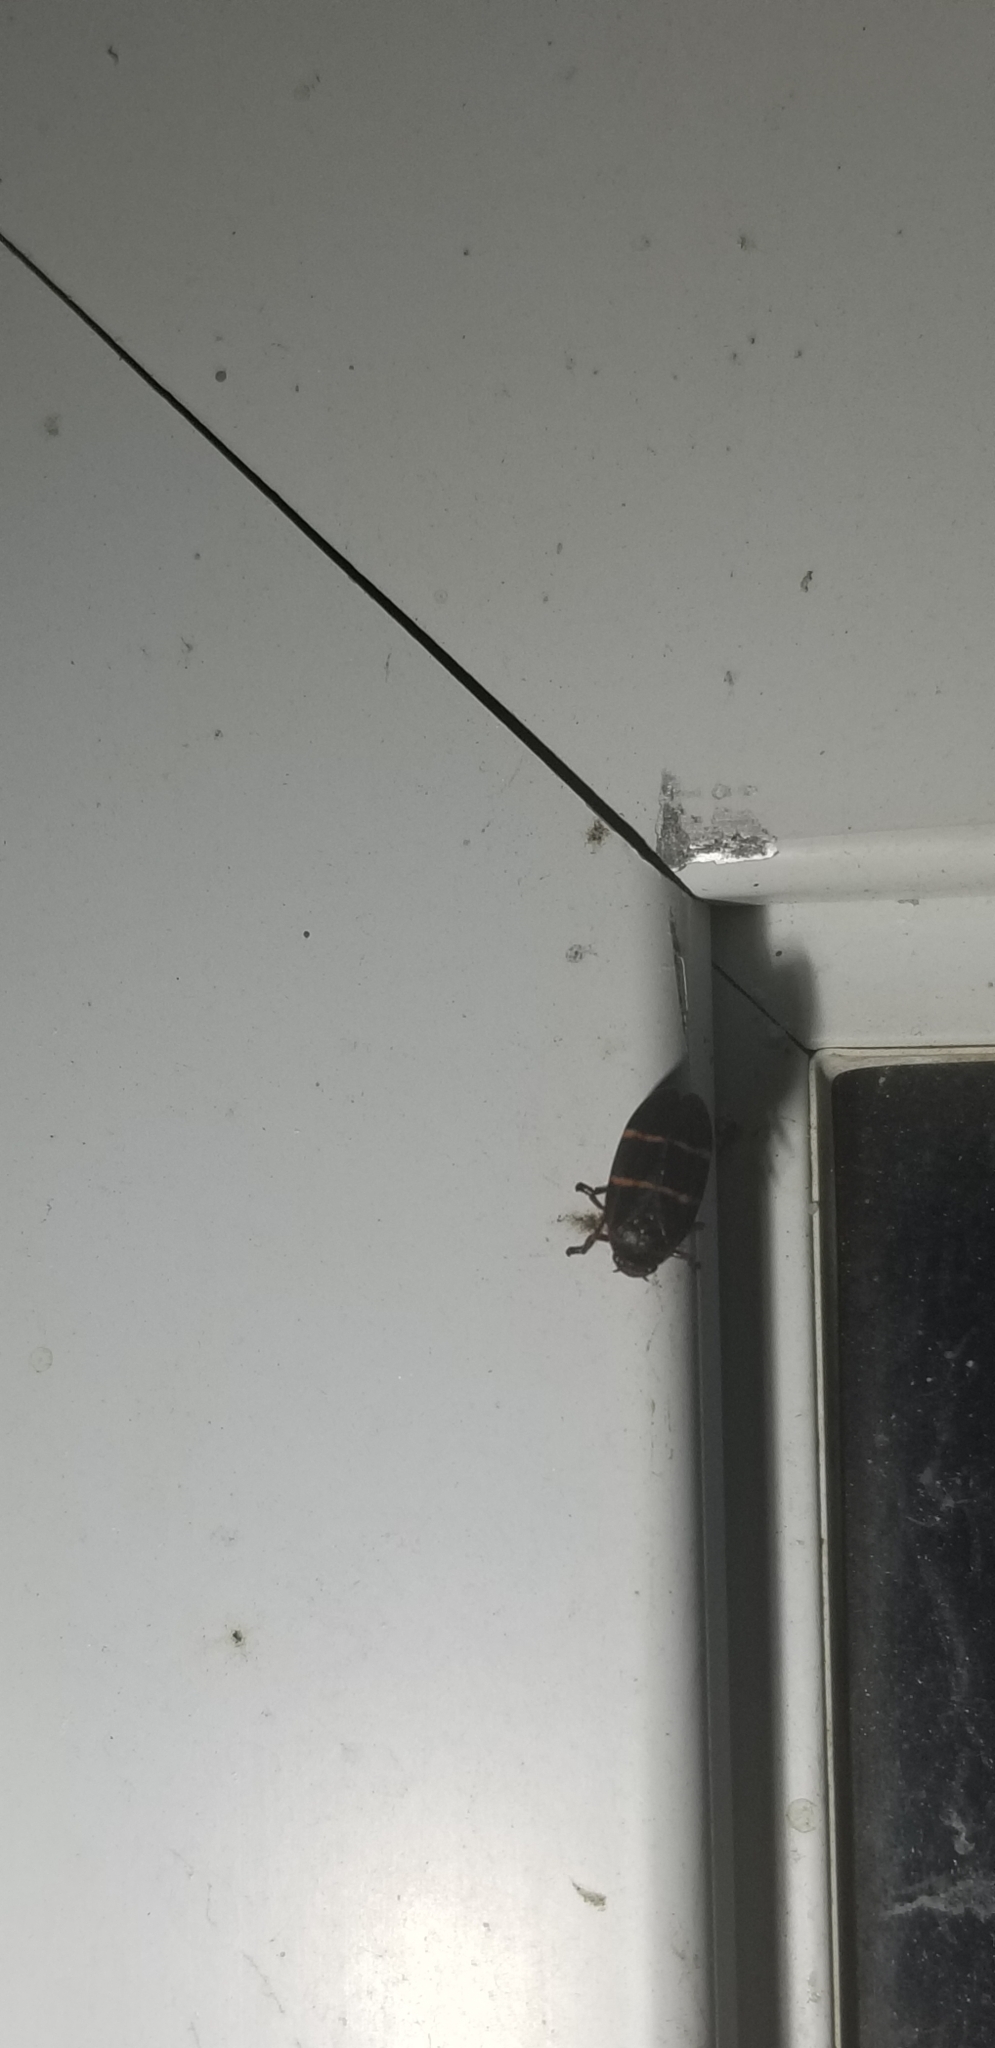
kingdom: Animalia
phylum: Arthropoda
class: Insecta
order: Hemiptera
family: Cercopidae
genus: Prosapia
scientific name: Prosapia bicincta
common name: Twolined spittlebug
